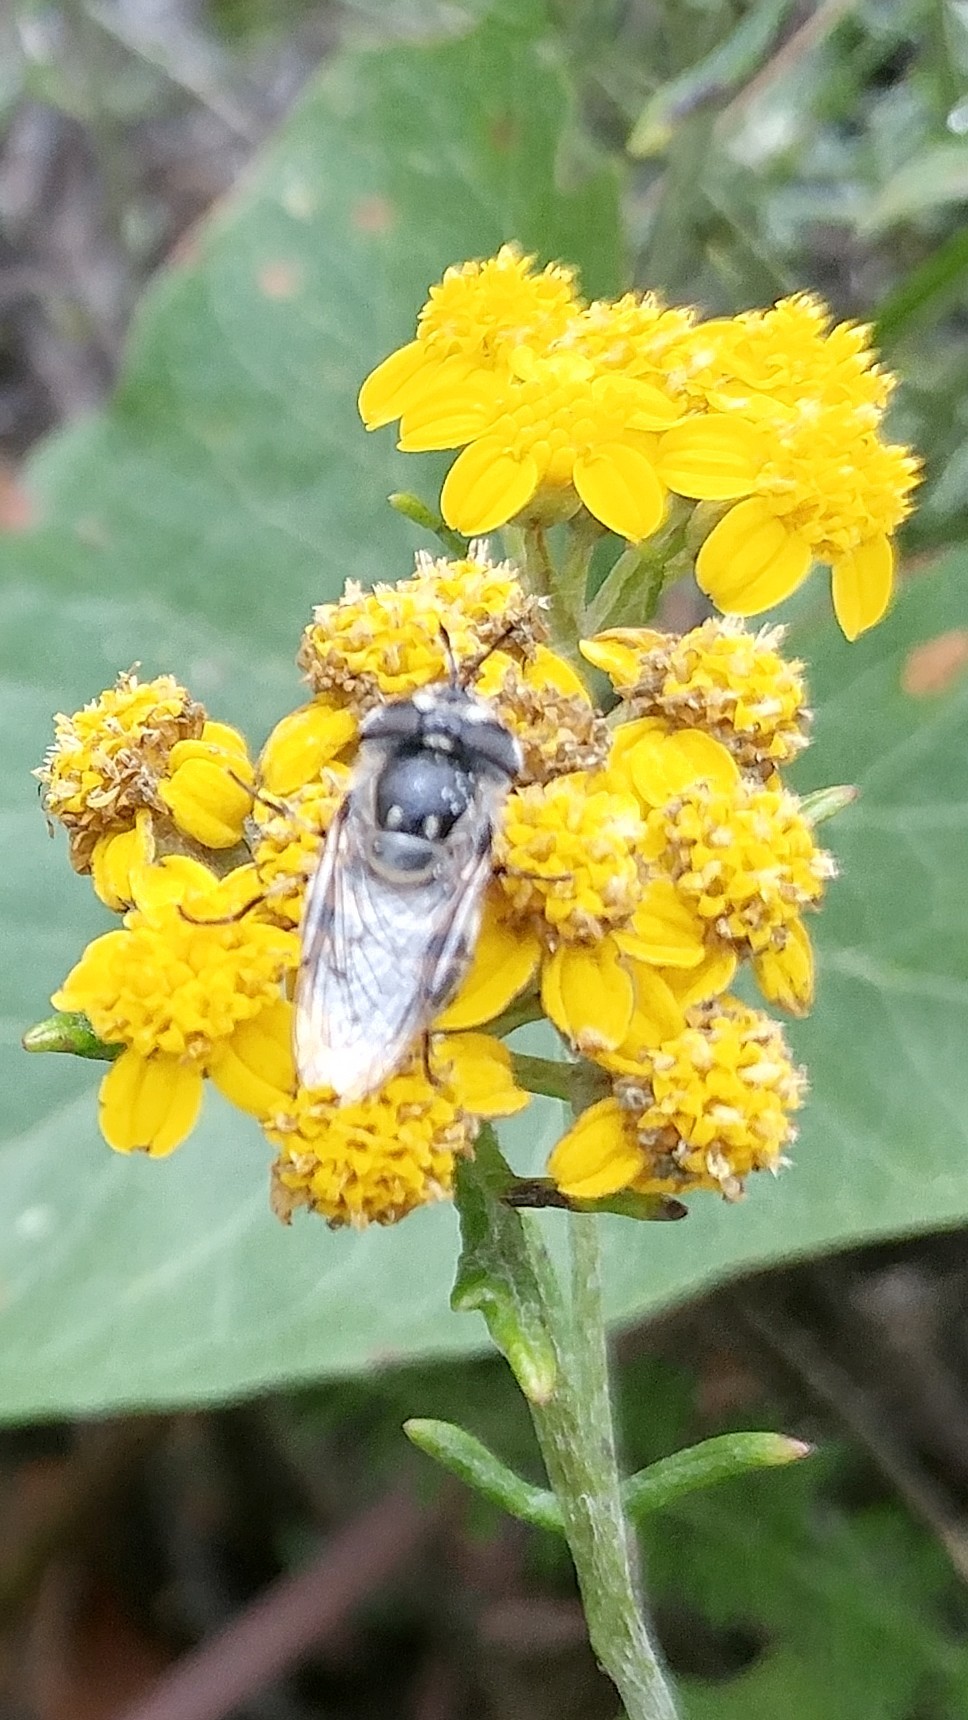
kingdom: Animalia
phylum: Arthropoda
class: Insecta
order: Diptera
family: Syrphidae
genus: Copestylum
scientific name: Copestylum lentum
